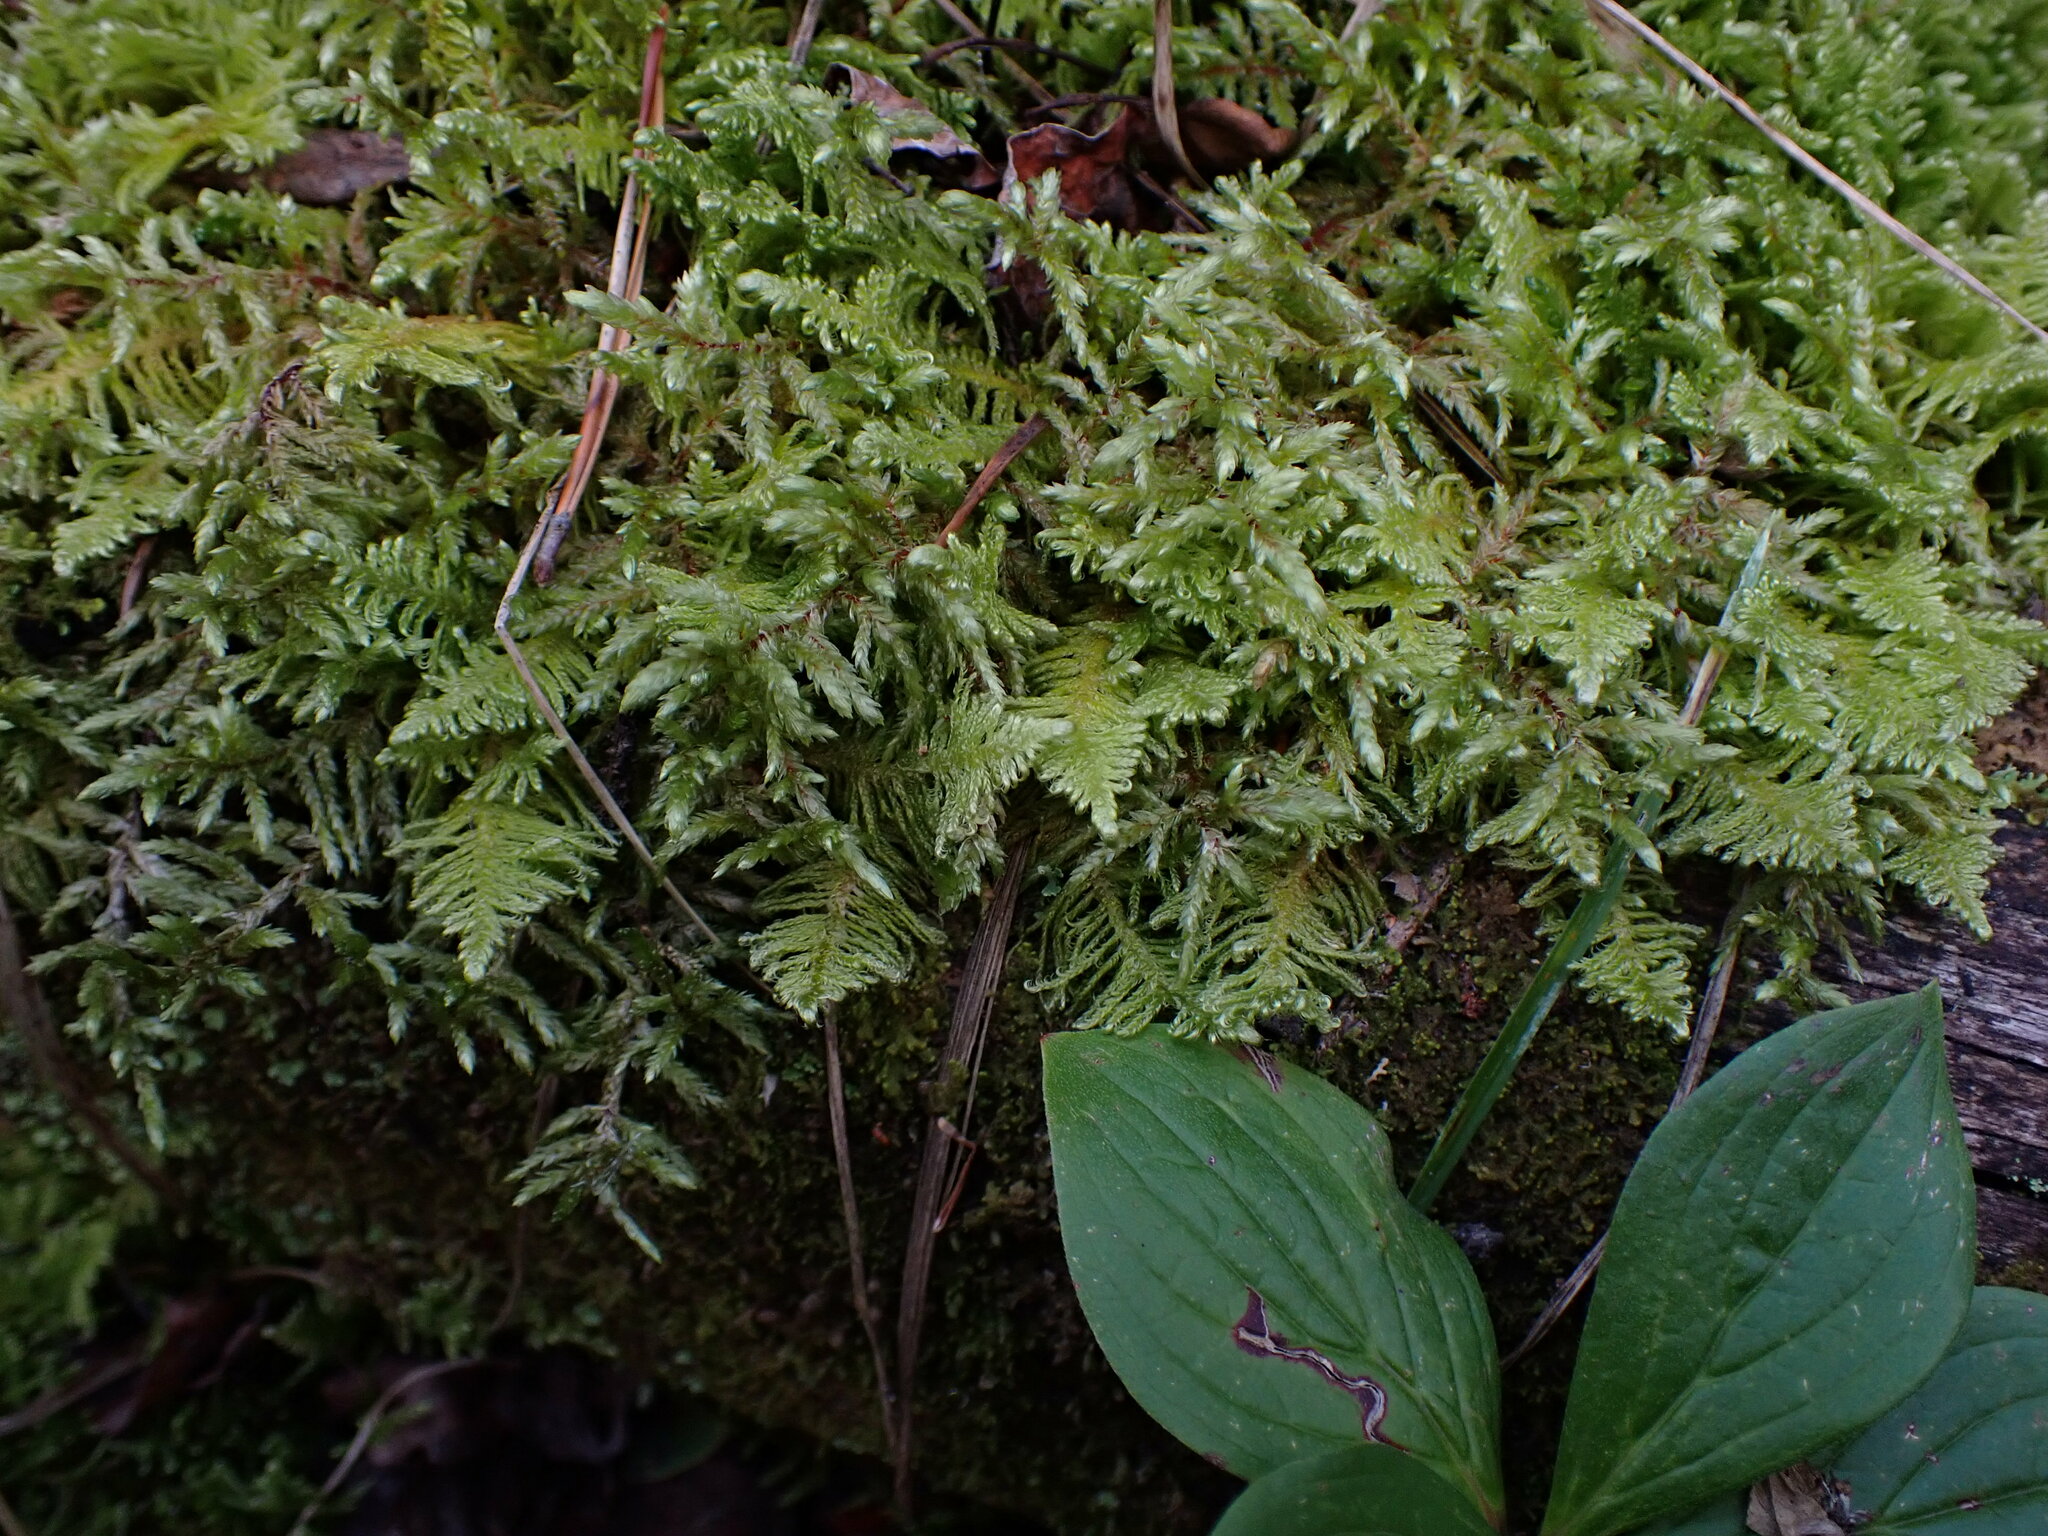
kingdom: Plantae
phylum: Bryophyta
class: Bryopsida
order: Hypnales
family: Pylaisiaceae
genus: Ptilium
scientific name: Ptilium crista-castrensis
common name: Knight's plume moss
